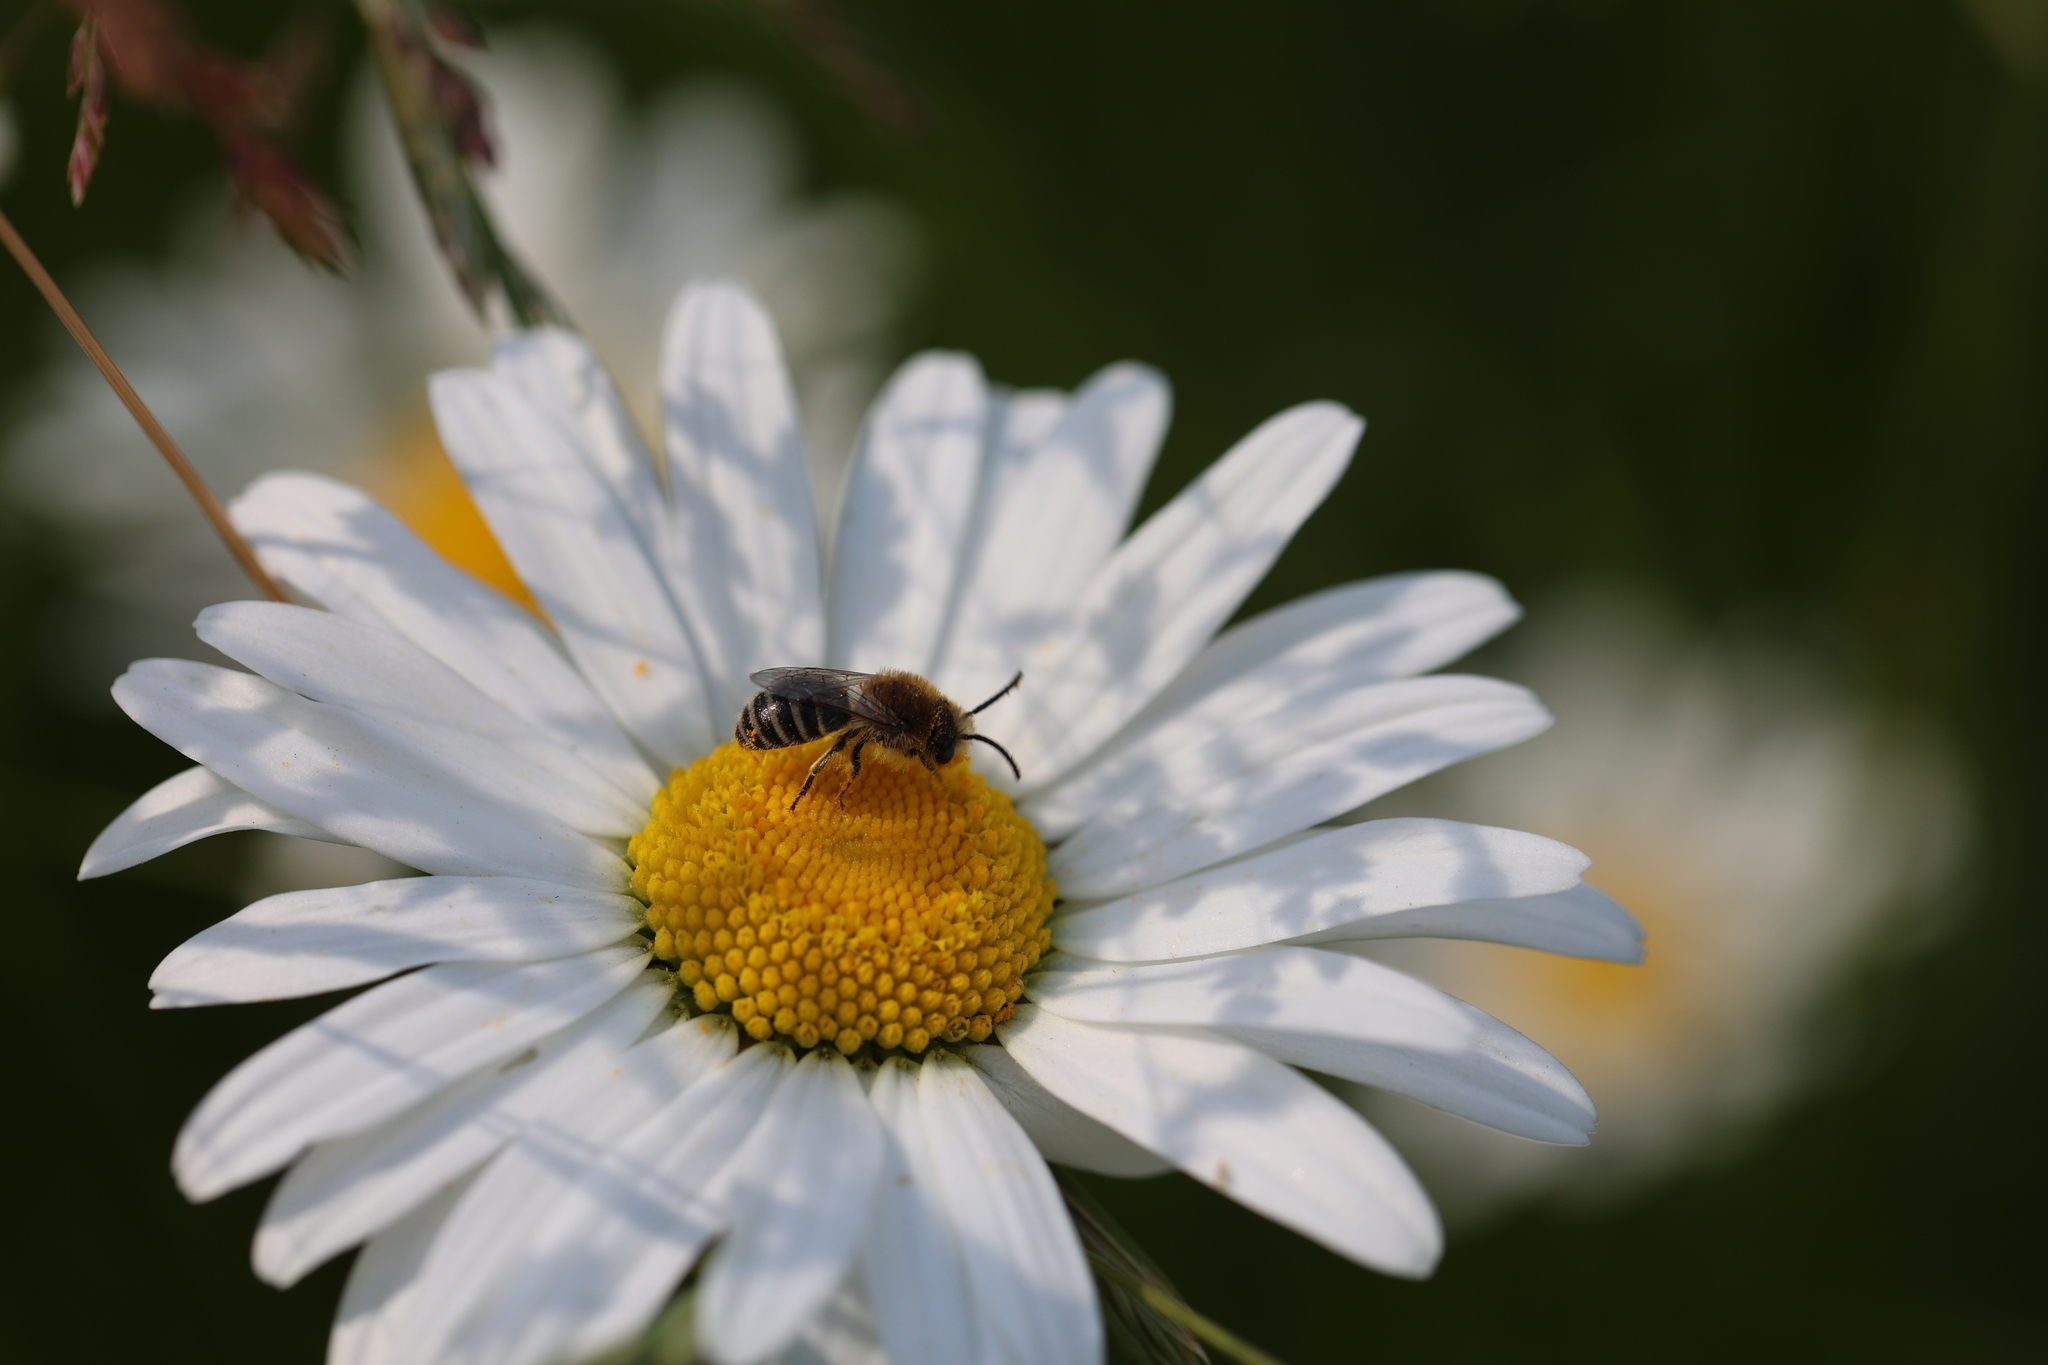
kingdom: Animalia
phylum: Arthropoda
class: Insecta
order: Hymenoptera
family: Colletidae
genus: Colletes
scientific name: Colletes
